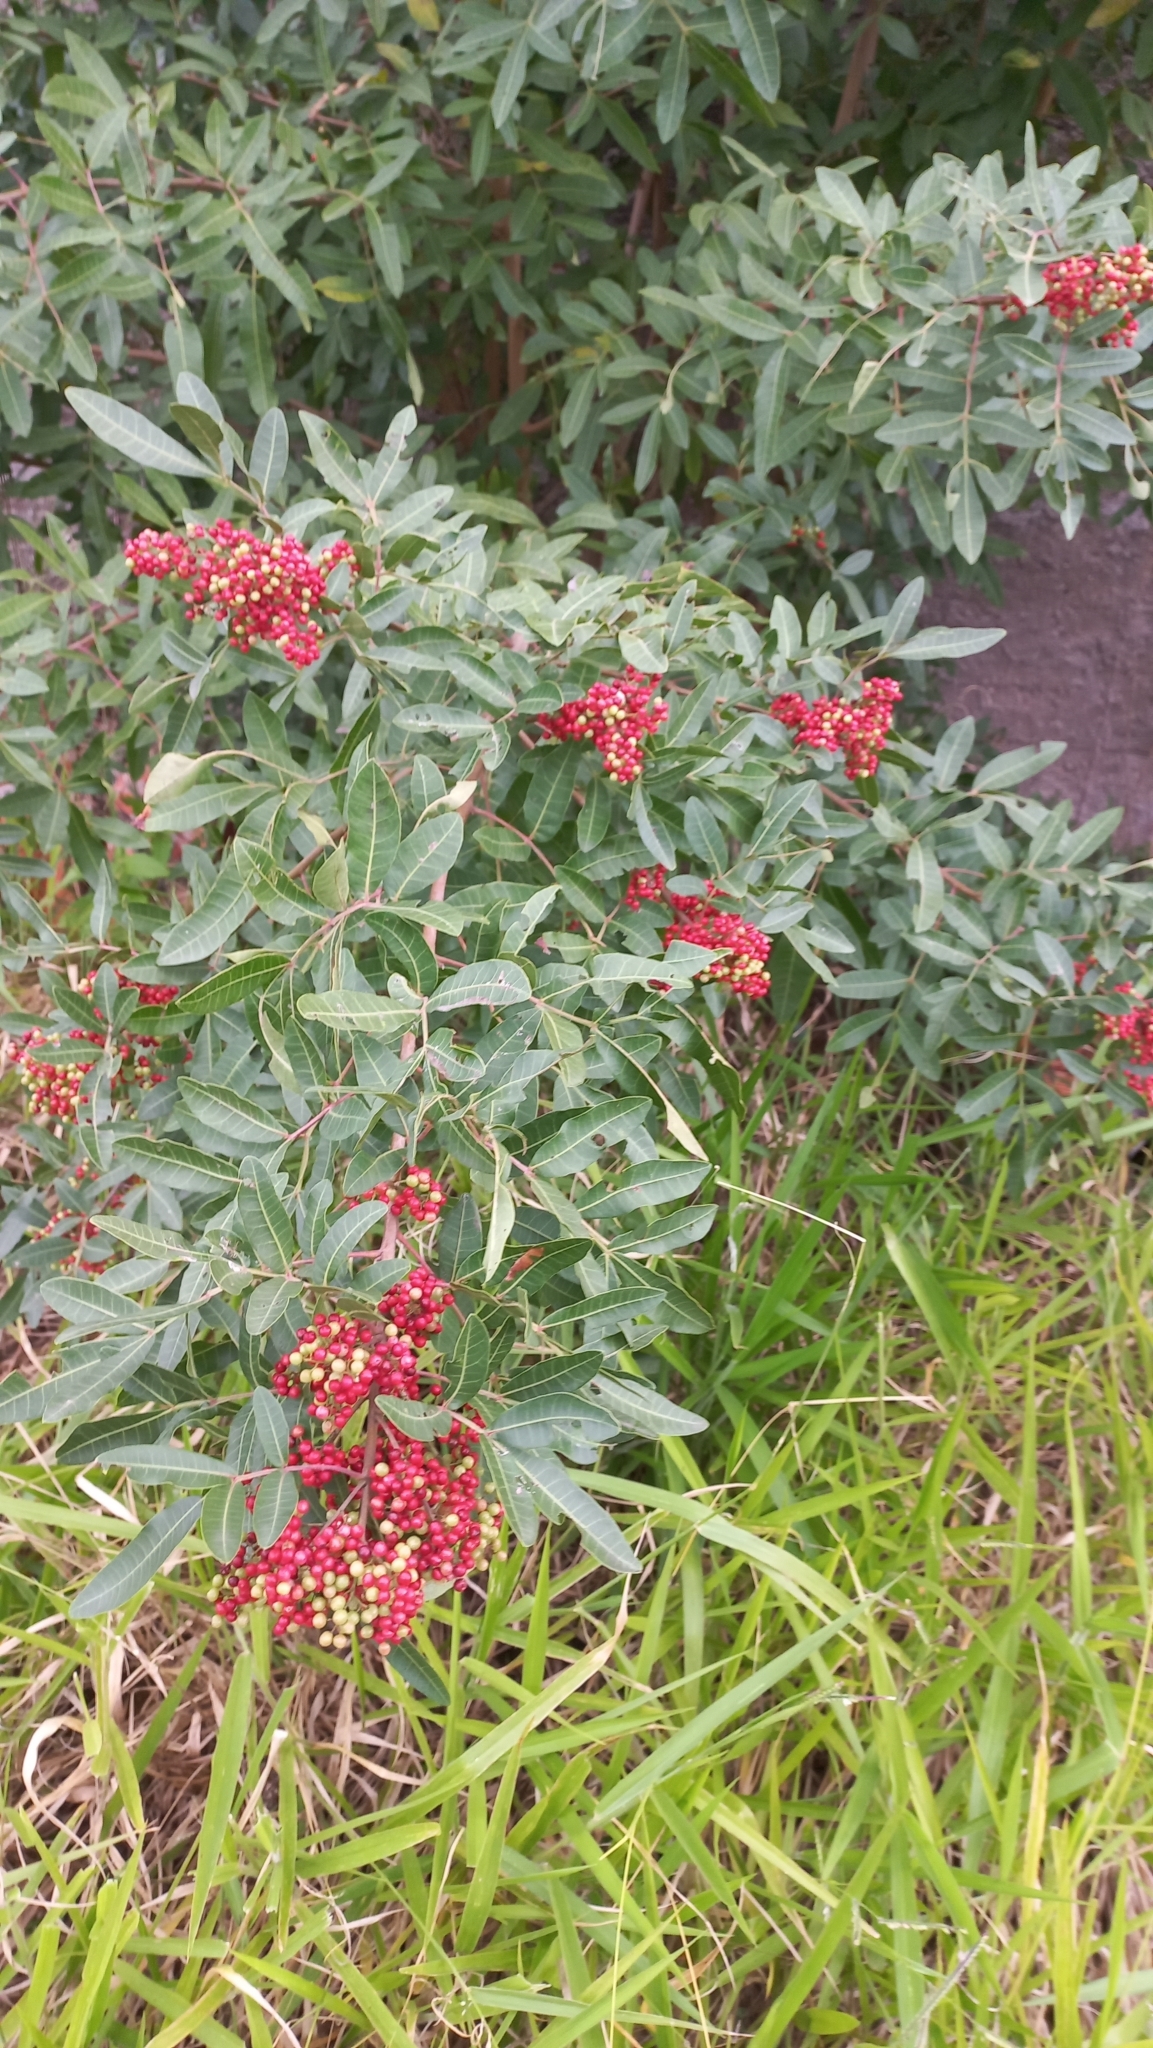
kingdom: Plantae
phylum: Tracheophyta
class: Magnoliopsida
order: Sapindales
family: Anacardiaceae
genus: Schinus
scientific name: Schinus terebinthifolia
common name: Brazilian peppertree
